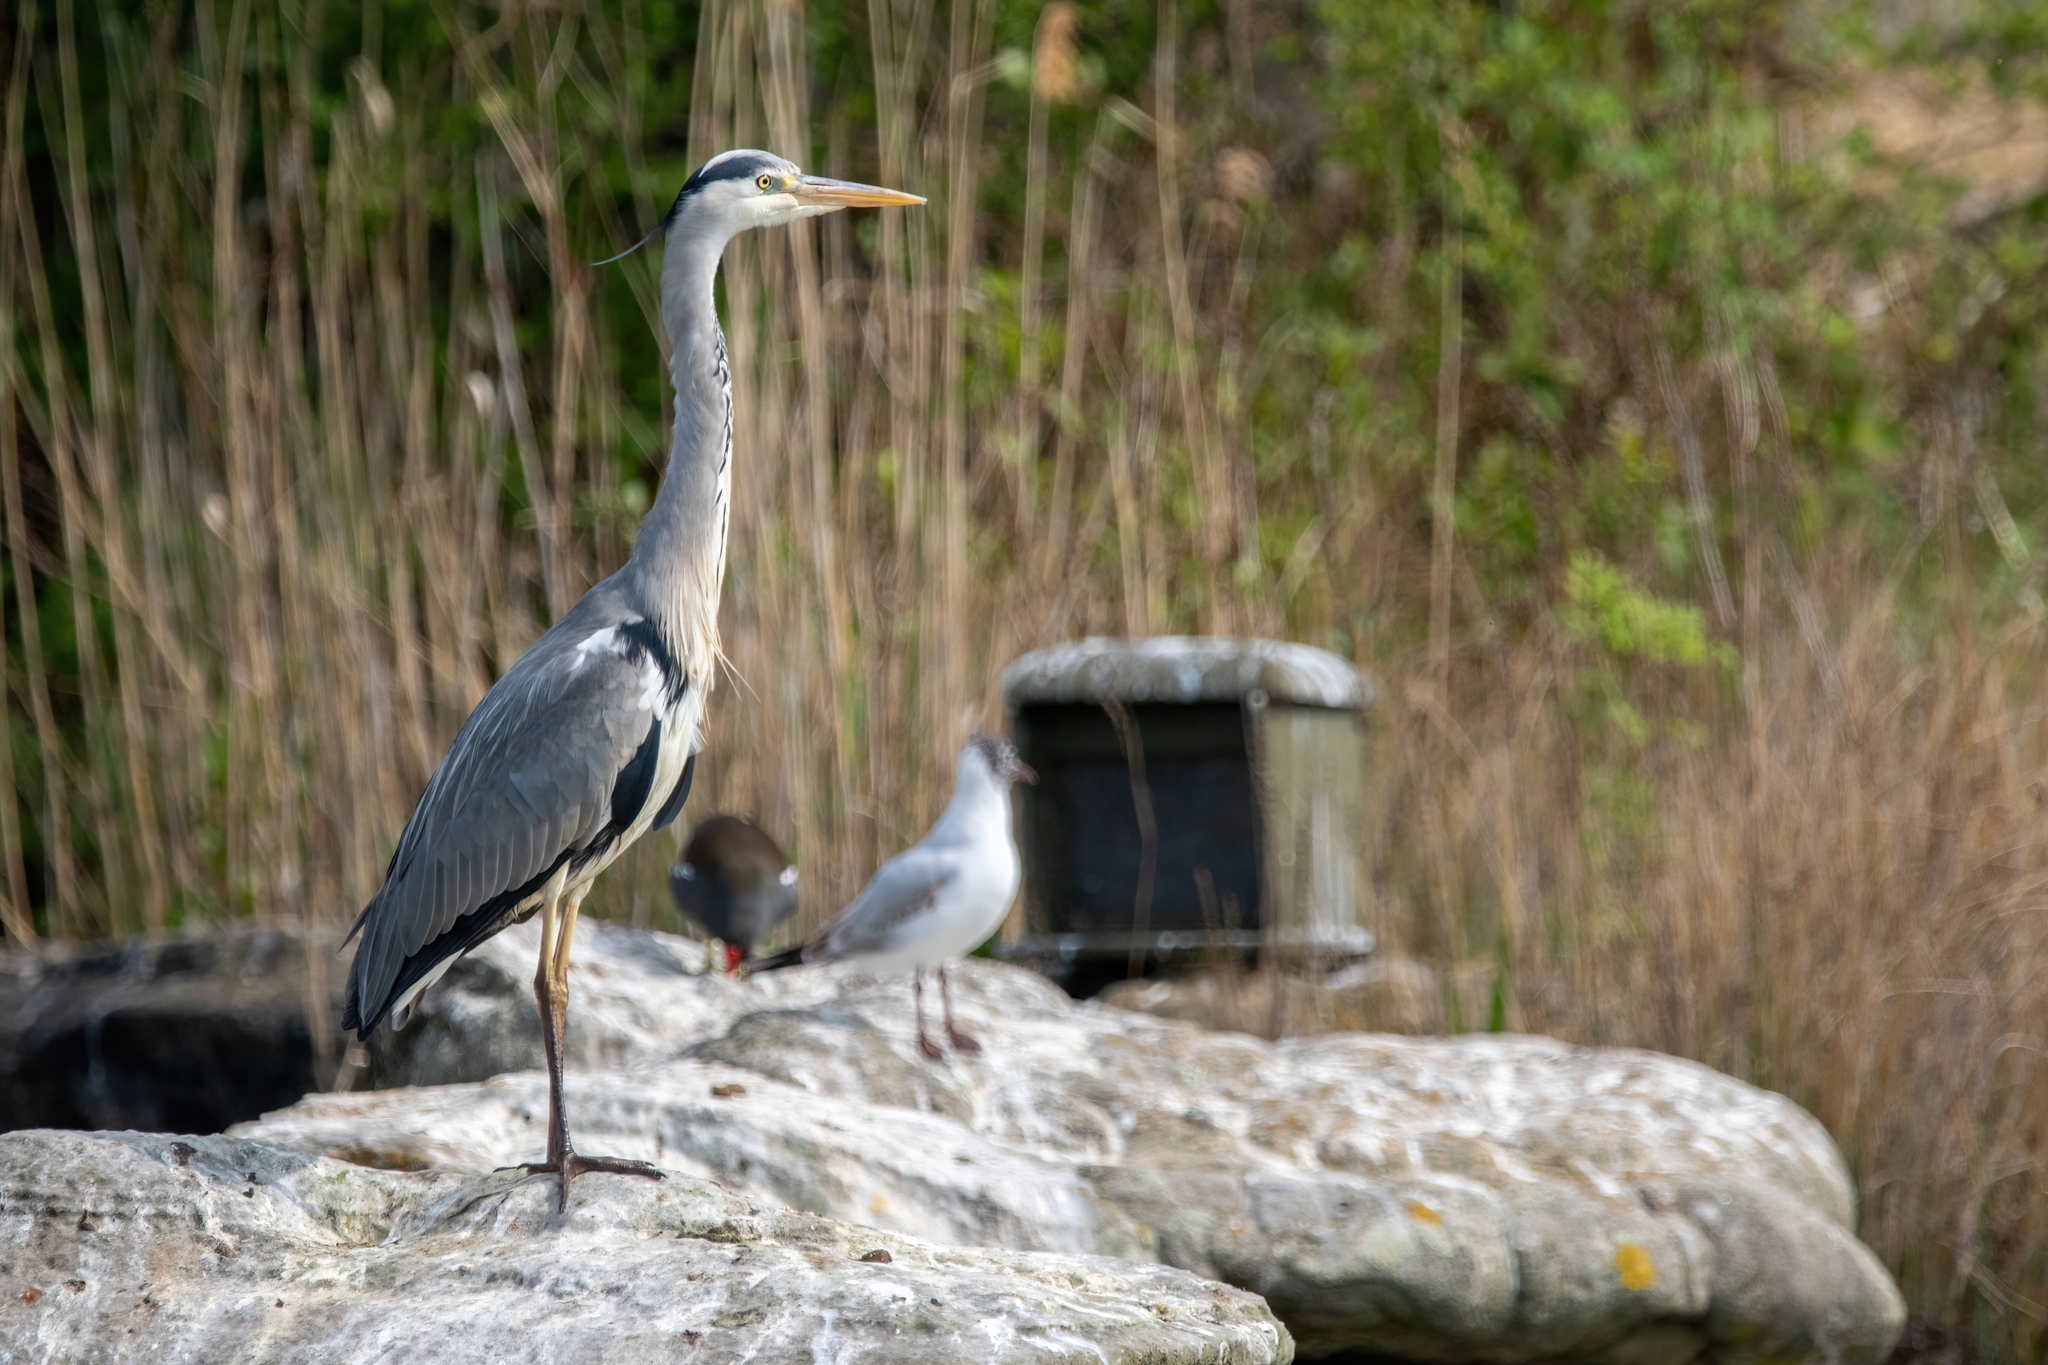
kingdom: Animalia
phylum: Chordata
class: Aves
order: Pelecaniformes
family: Ardeidae
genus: Ardea
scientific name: Ardea cinerea
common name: Grey heron
